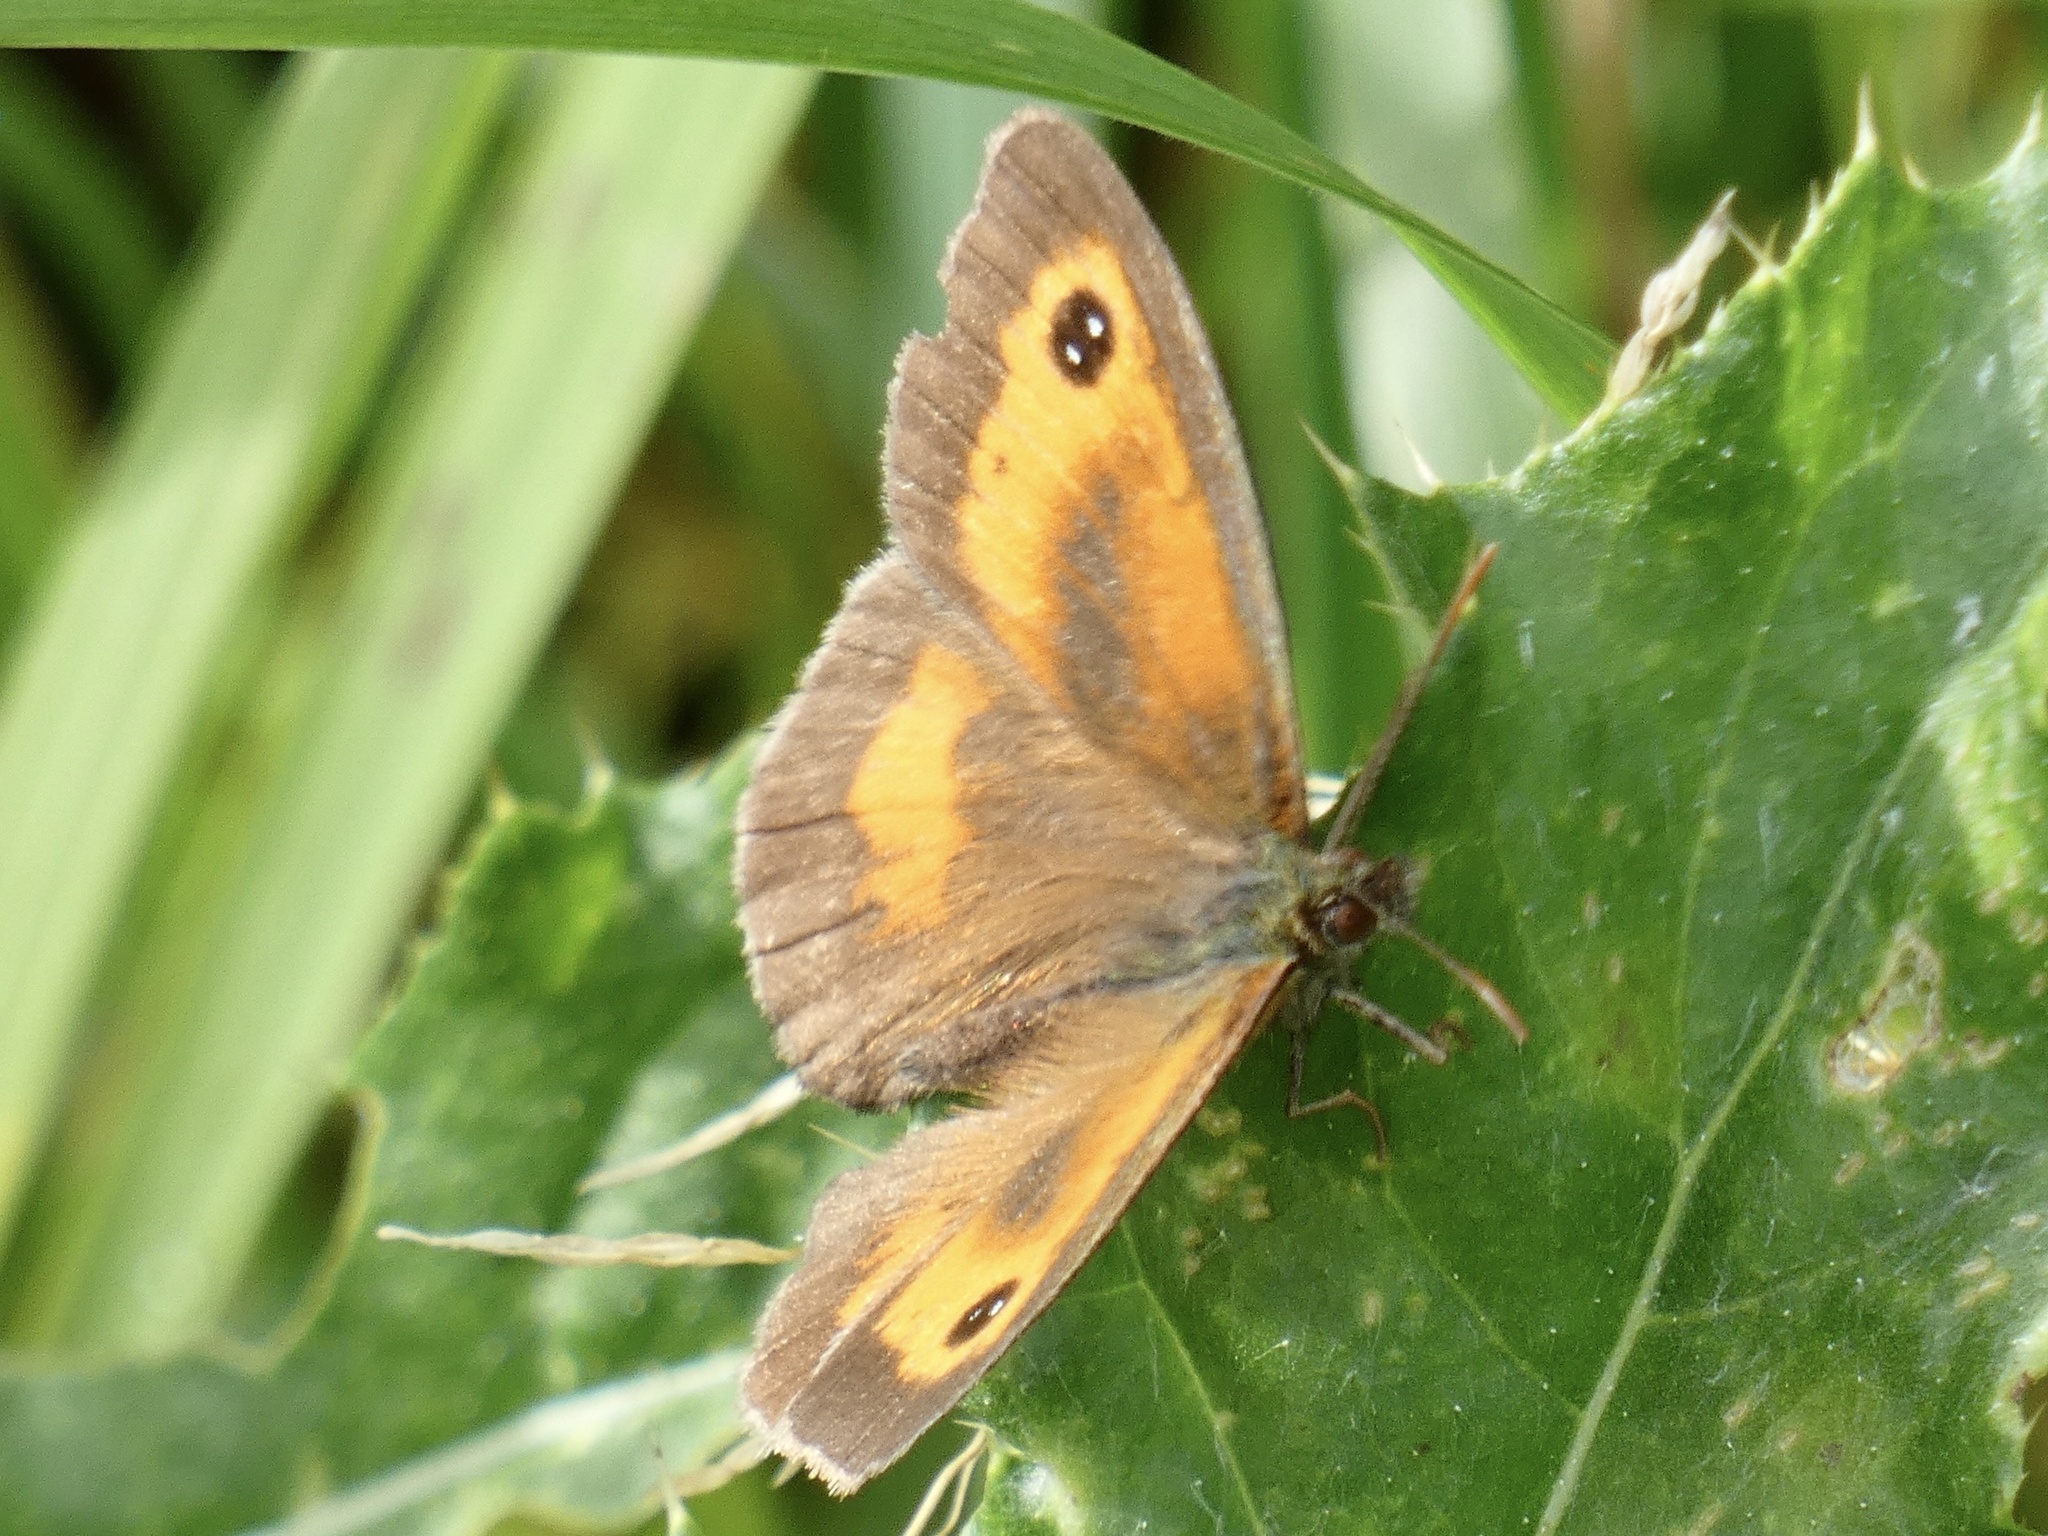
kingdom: Animalia
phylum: Arthropoda
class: Insecta
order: Lepidoptera
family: Nymphalidae
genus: Pyronia
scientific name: Pyronia tithonus
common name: Gatekeeper
